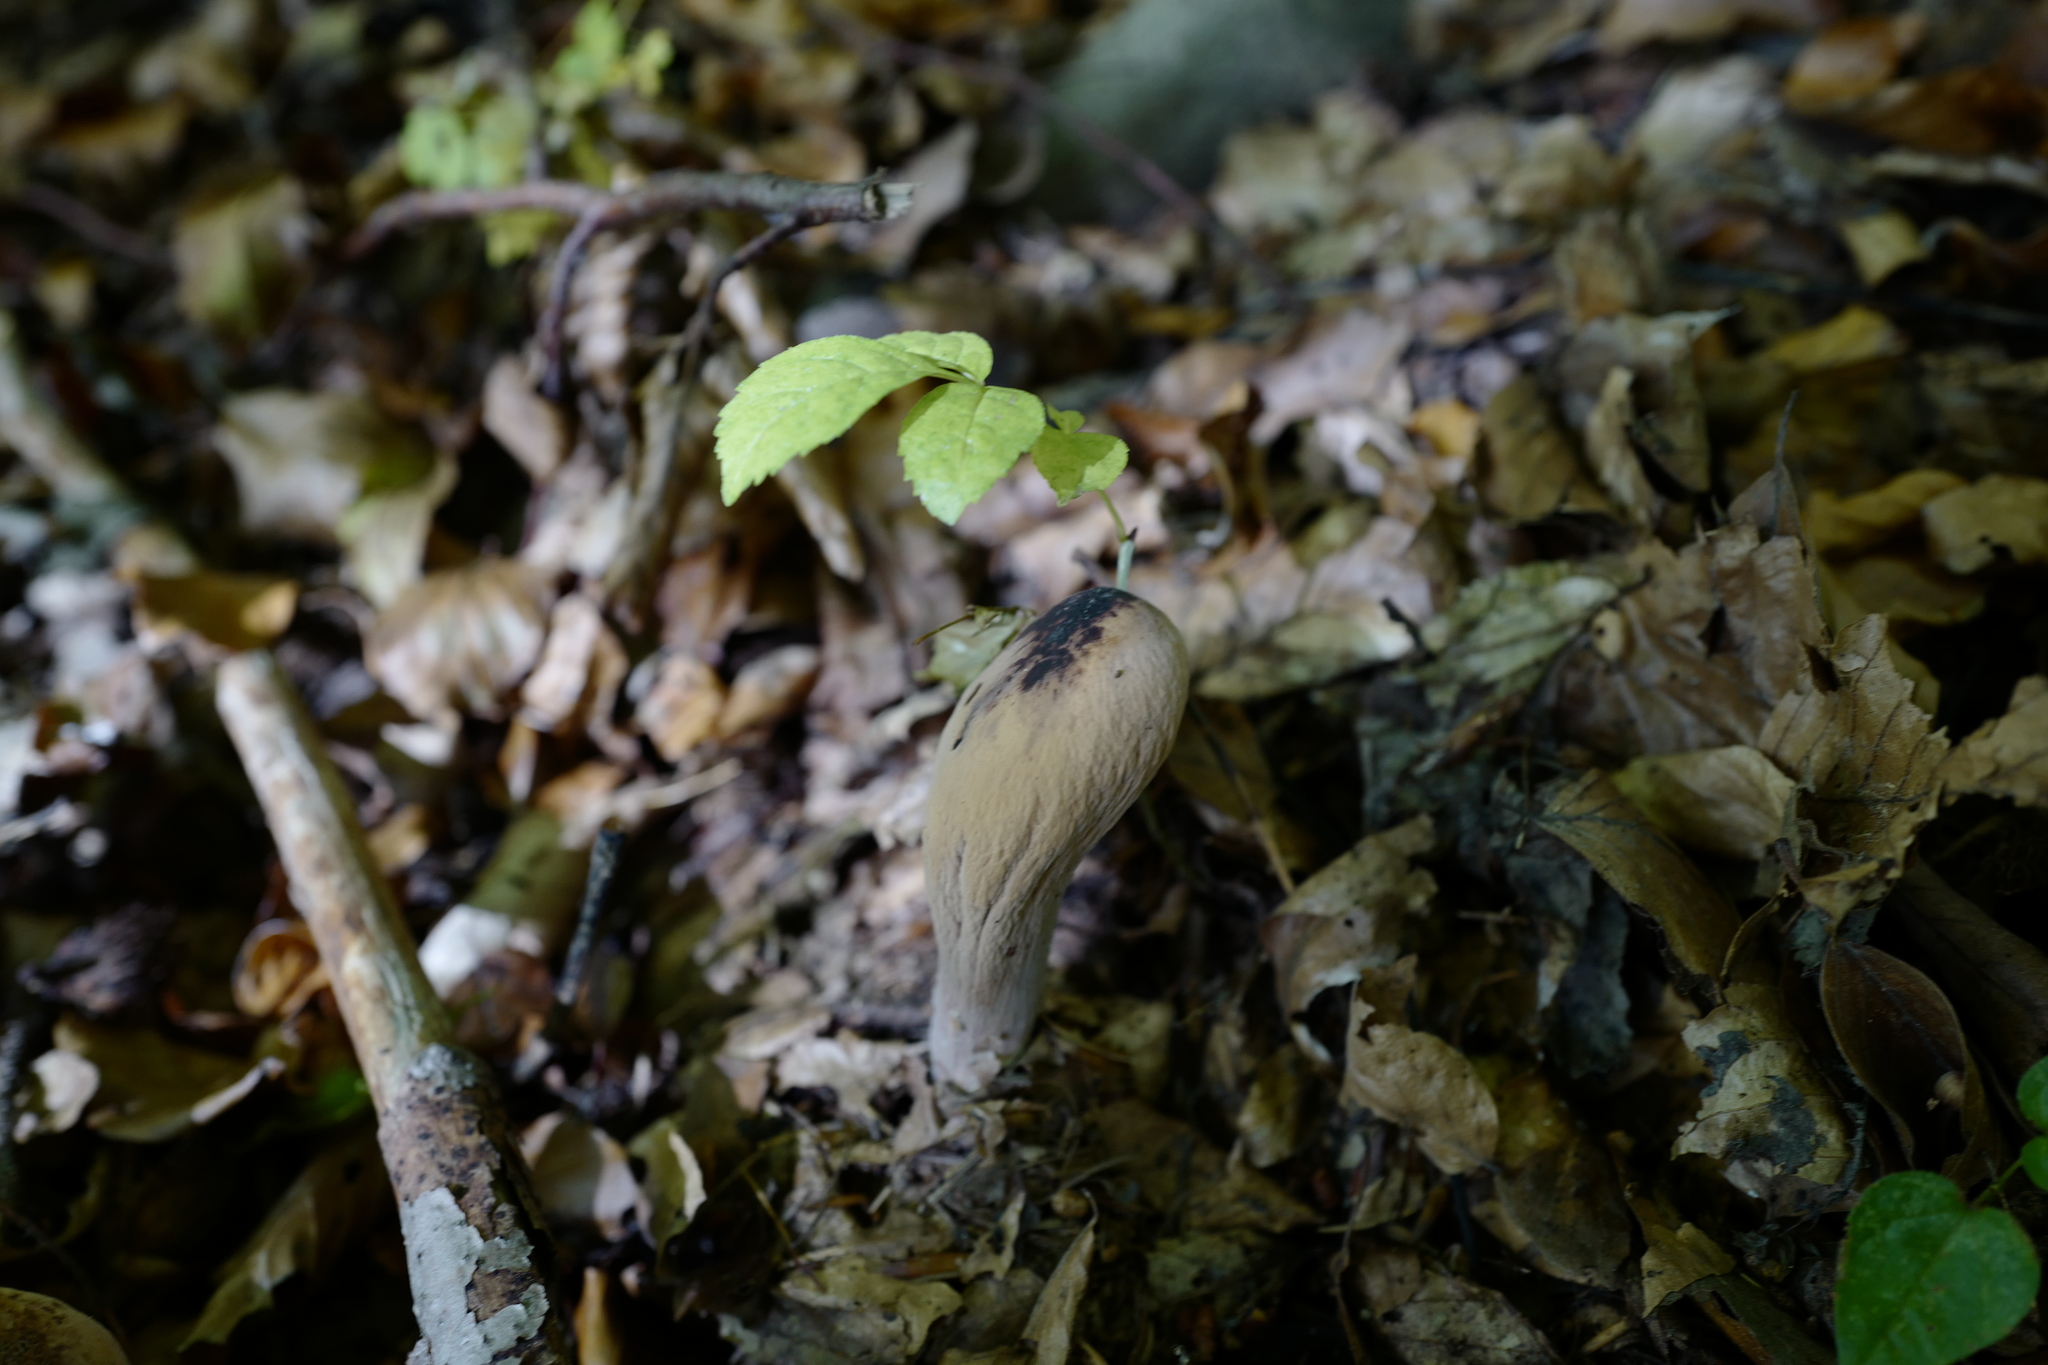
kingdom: Fungi
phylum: Basidiomycota
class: Agaricomycetes
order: Gomphales
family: Clavariadelphaceae
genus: Clavariadelphus
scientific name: Clavariadelphus pistillaris
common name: Giant club
